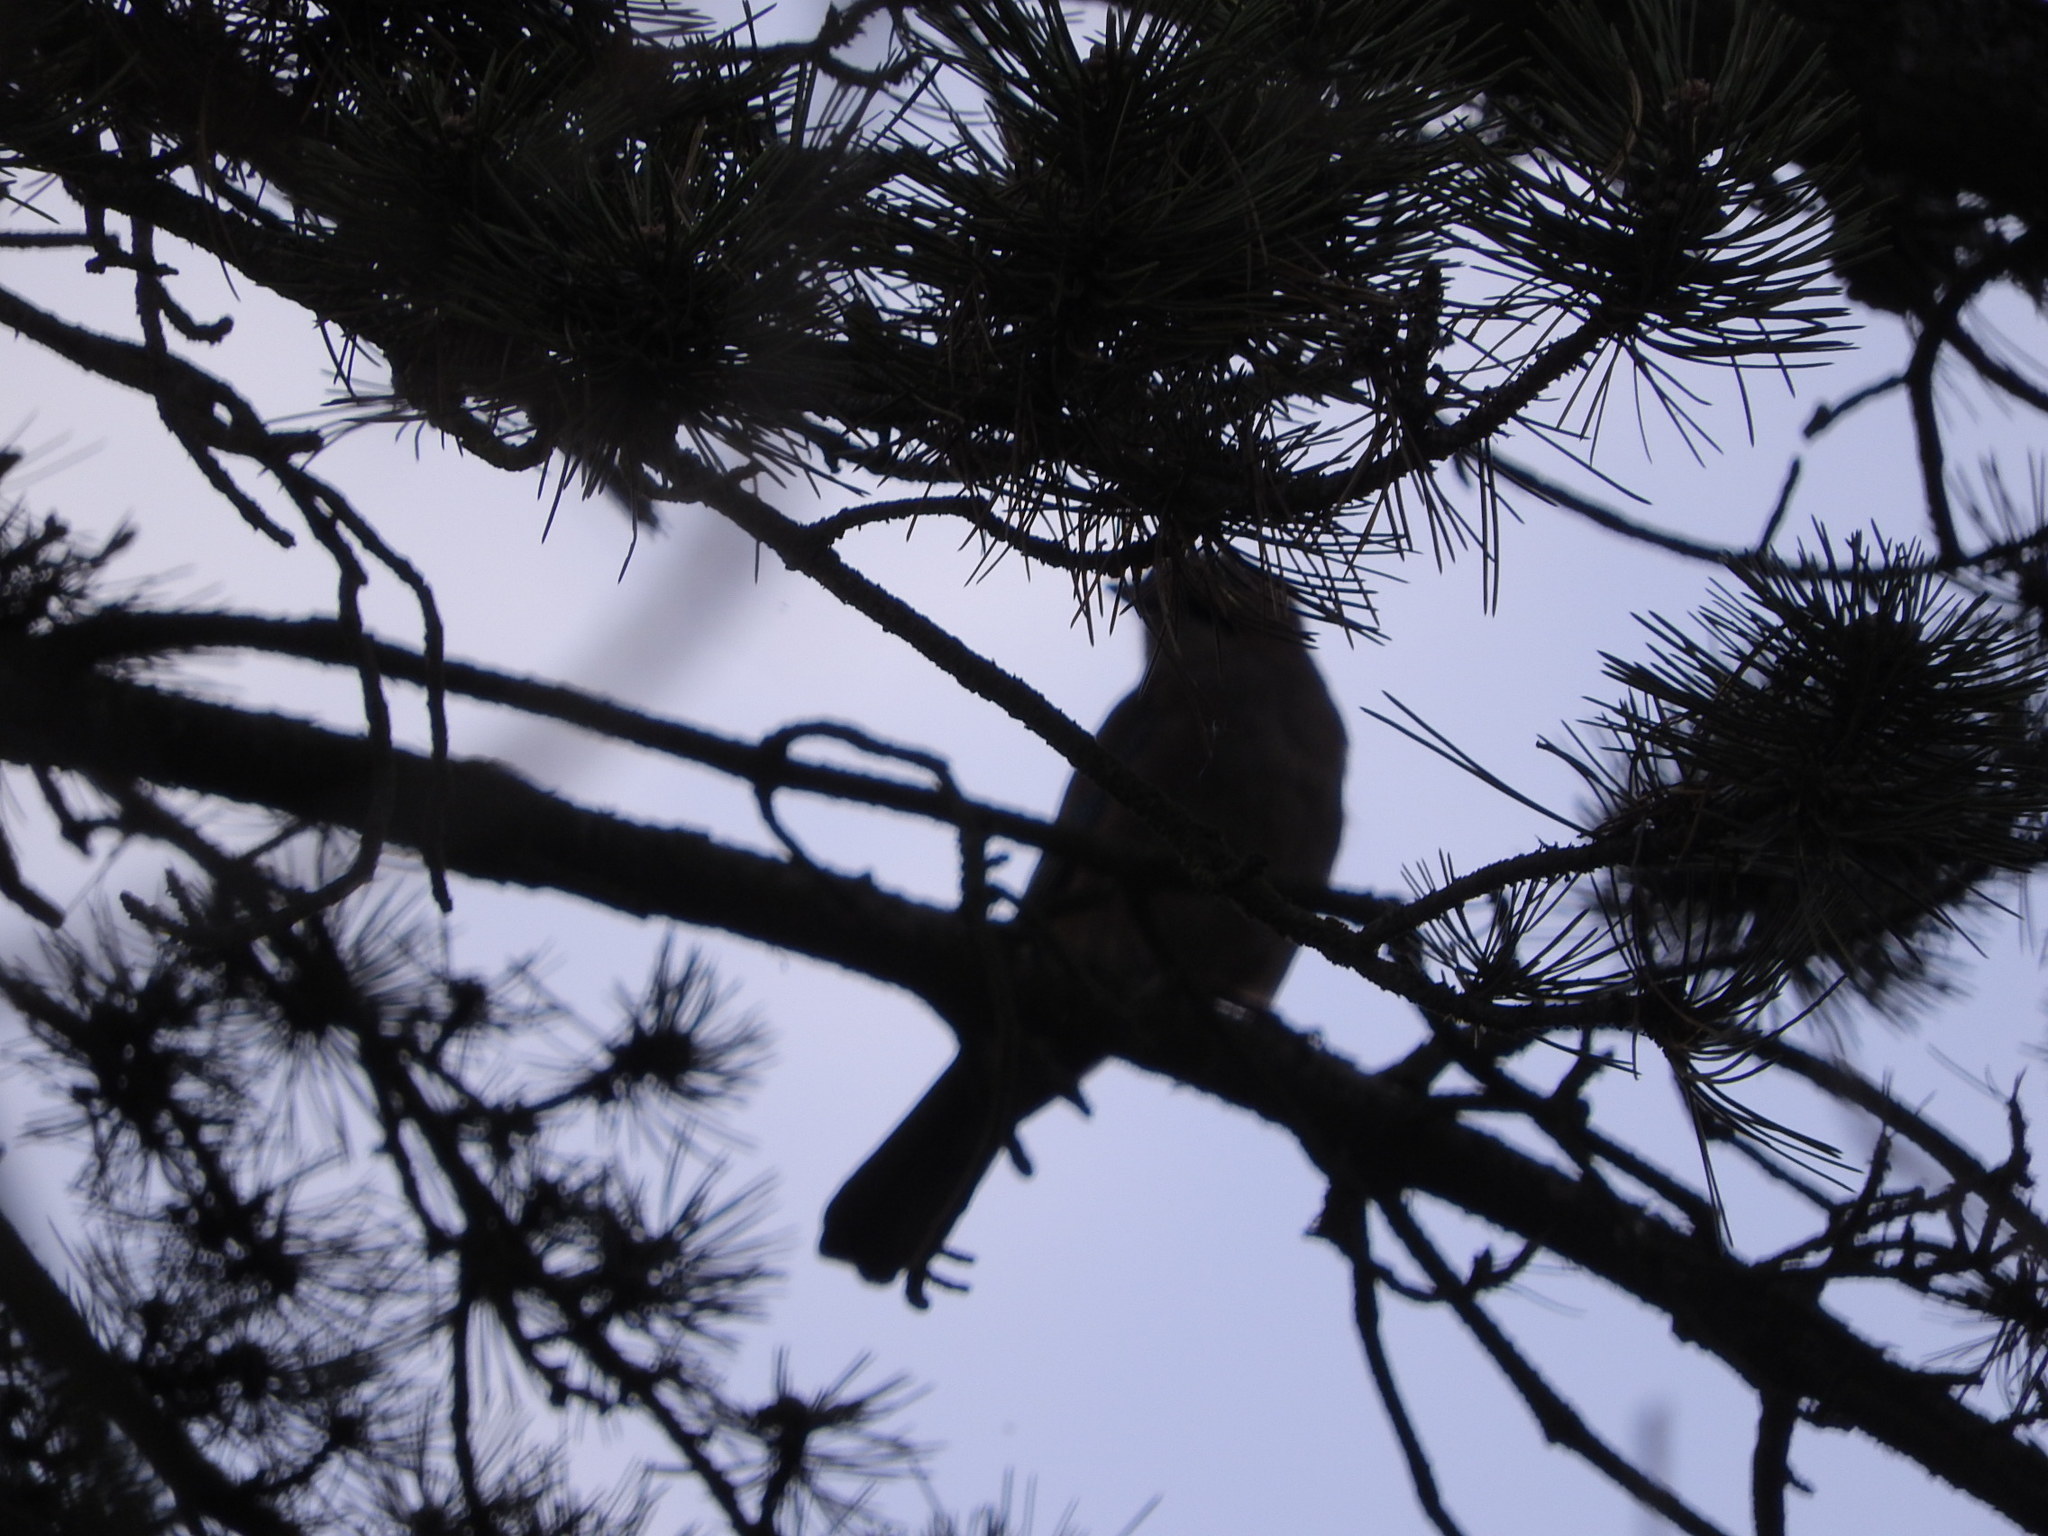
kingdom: Animalia
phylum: Chordata
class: Aves
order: Passeriformes
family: Corvidae
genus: Garrulus
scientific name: Garrulus glandarius
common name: Eurasian jay
